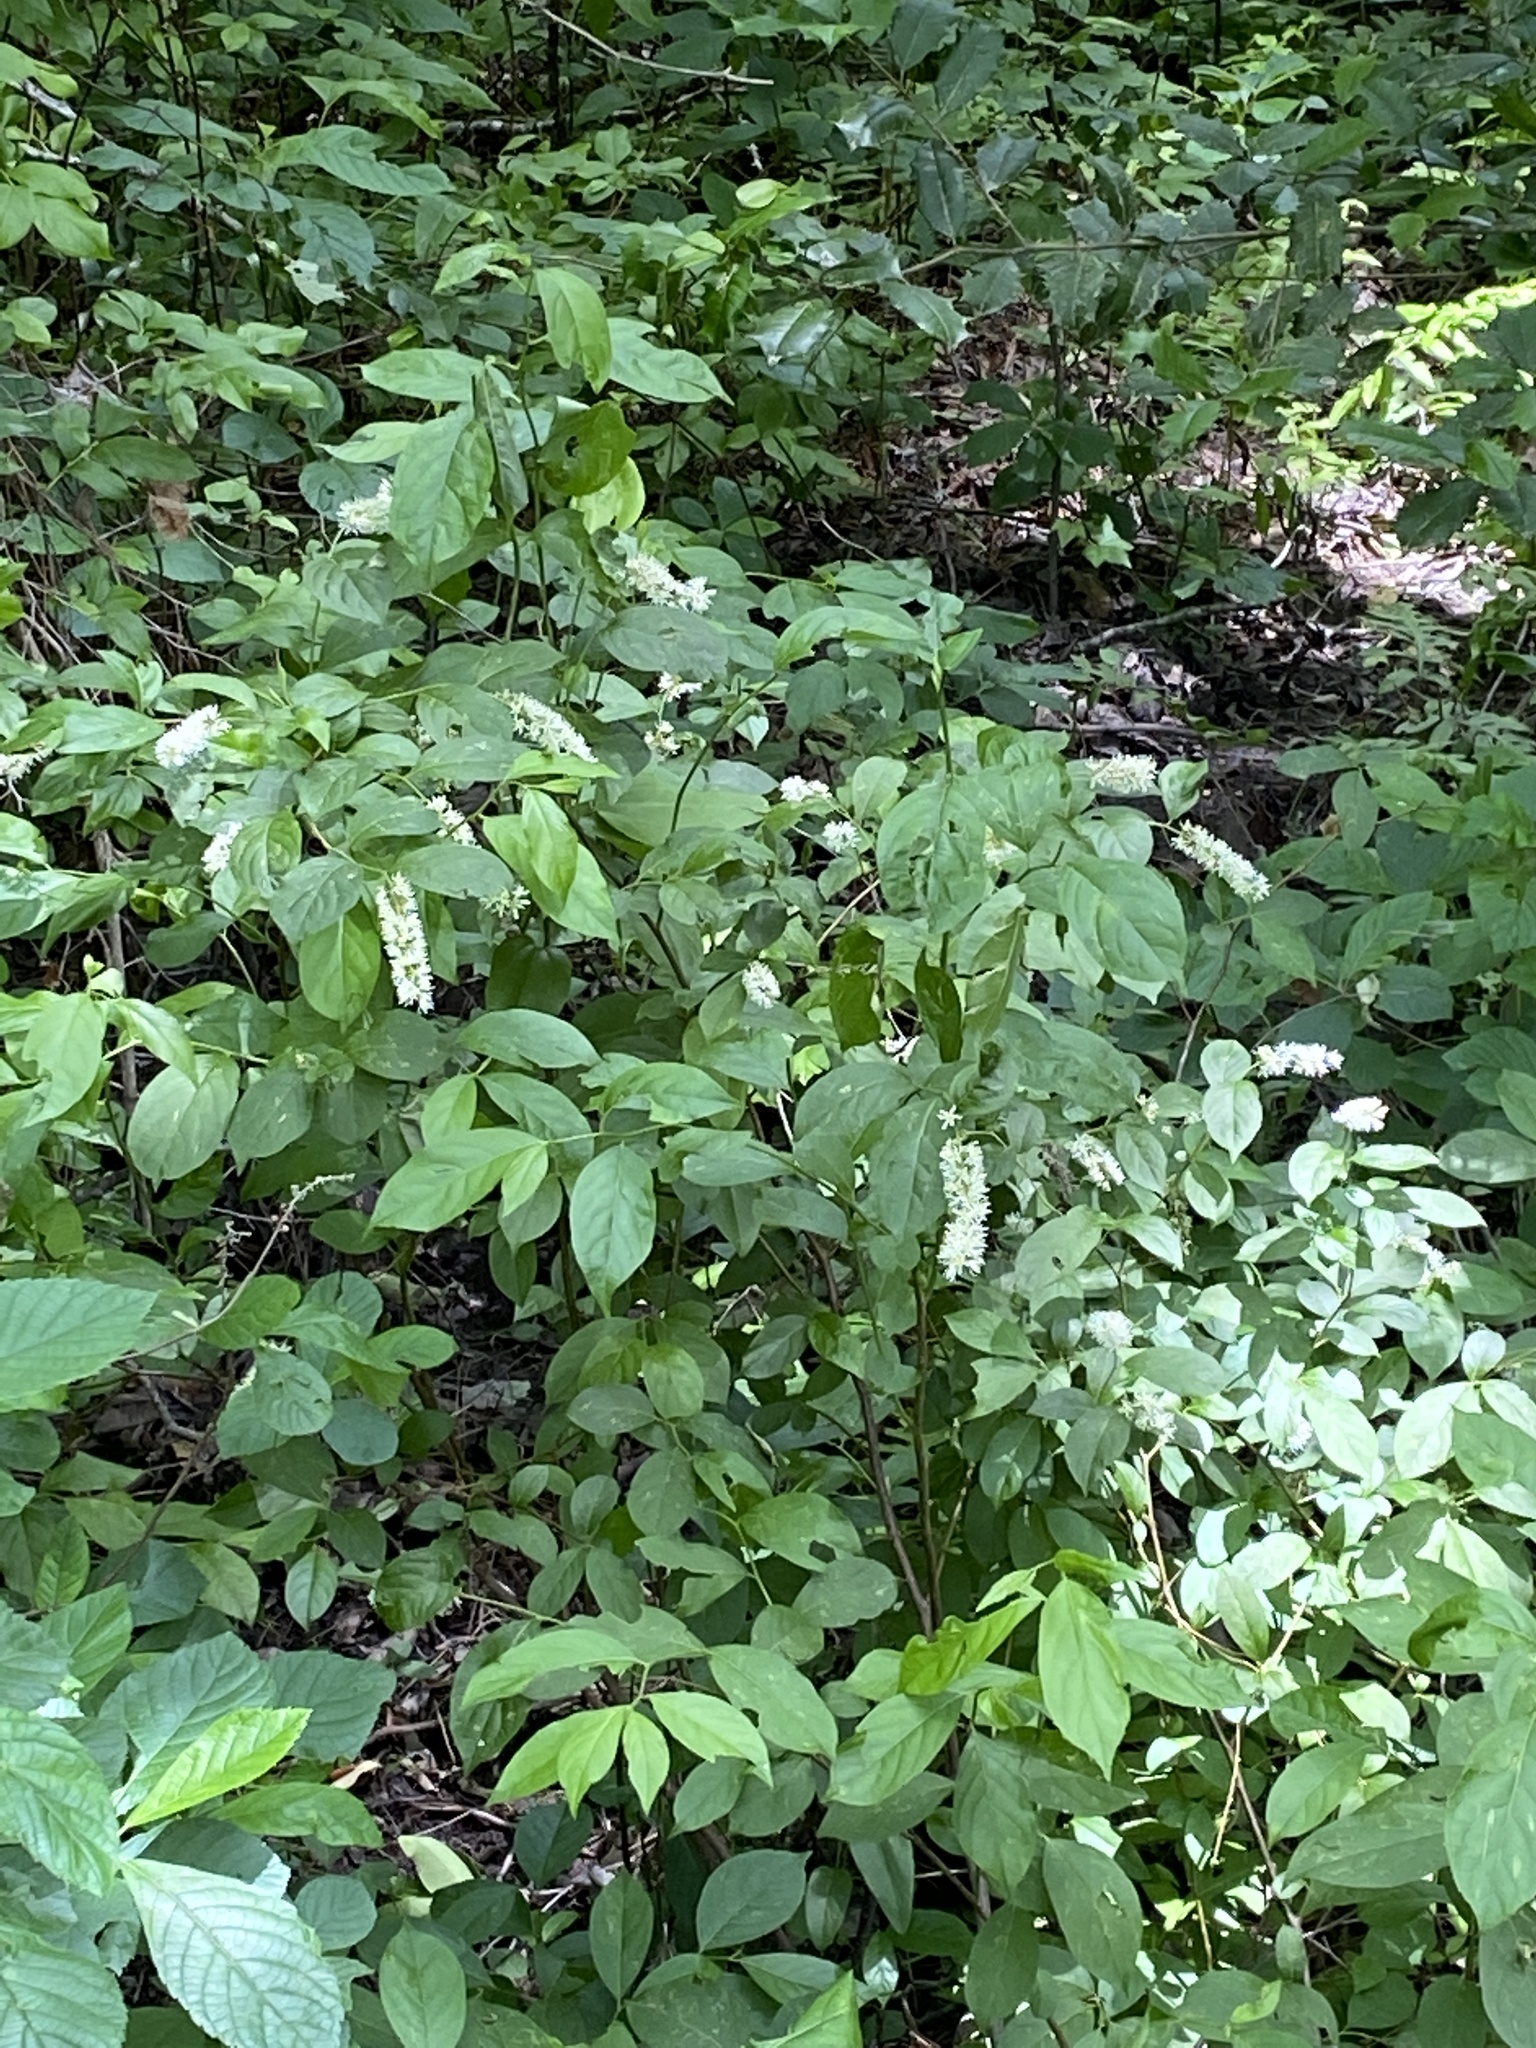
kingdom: Plantae
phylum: Tracheophyta
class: Magnoliopsida
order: Saxifragales
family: Iteaceae
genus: Itea
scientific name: Itea virginica
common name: Sweetspire
